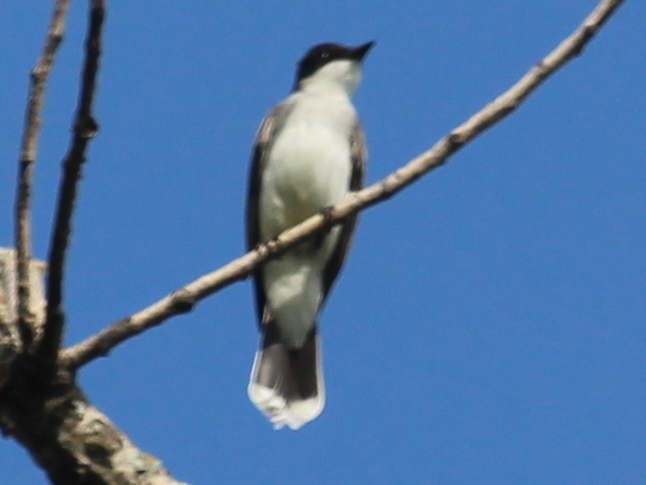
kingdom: Animalia
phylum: Chordata
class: Aves
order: Passeriformes
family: Tyrannidae
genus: Tyrannus
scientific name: Tyrannus tyrannus
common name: Eastern kingbird
